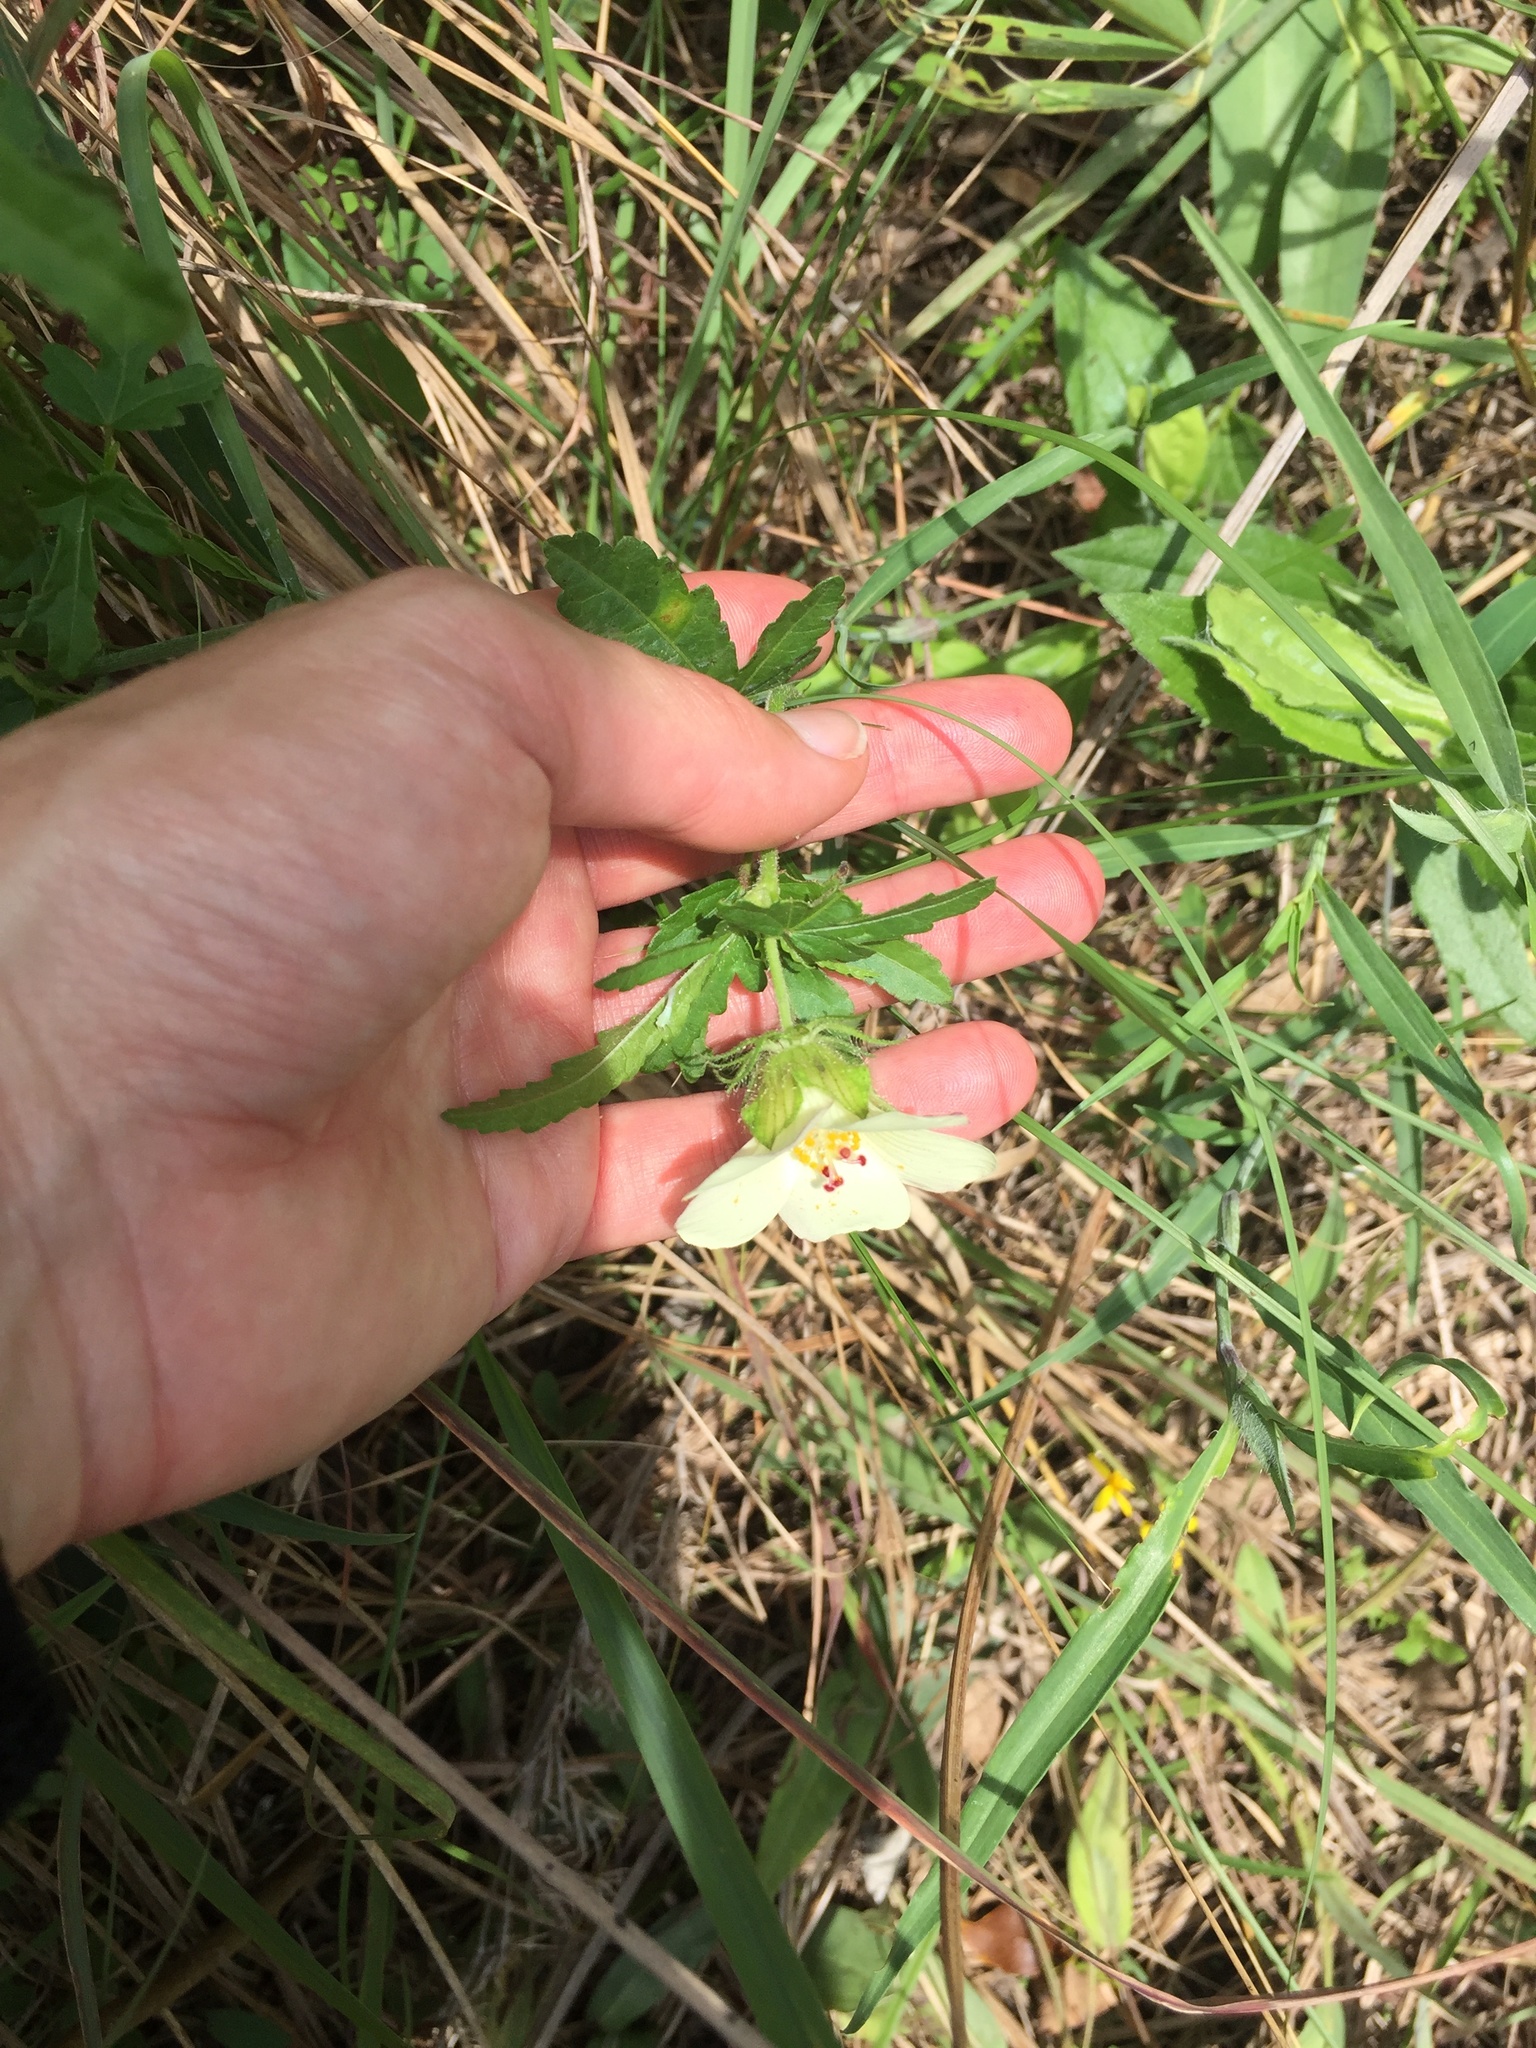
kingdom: Plantae
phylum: Tracheophyta
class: Magnoliopsida
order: Malvales
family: Malvaceae
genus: Hibiscus
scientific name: Hibiscus trionum
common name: Bladder ketmia
